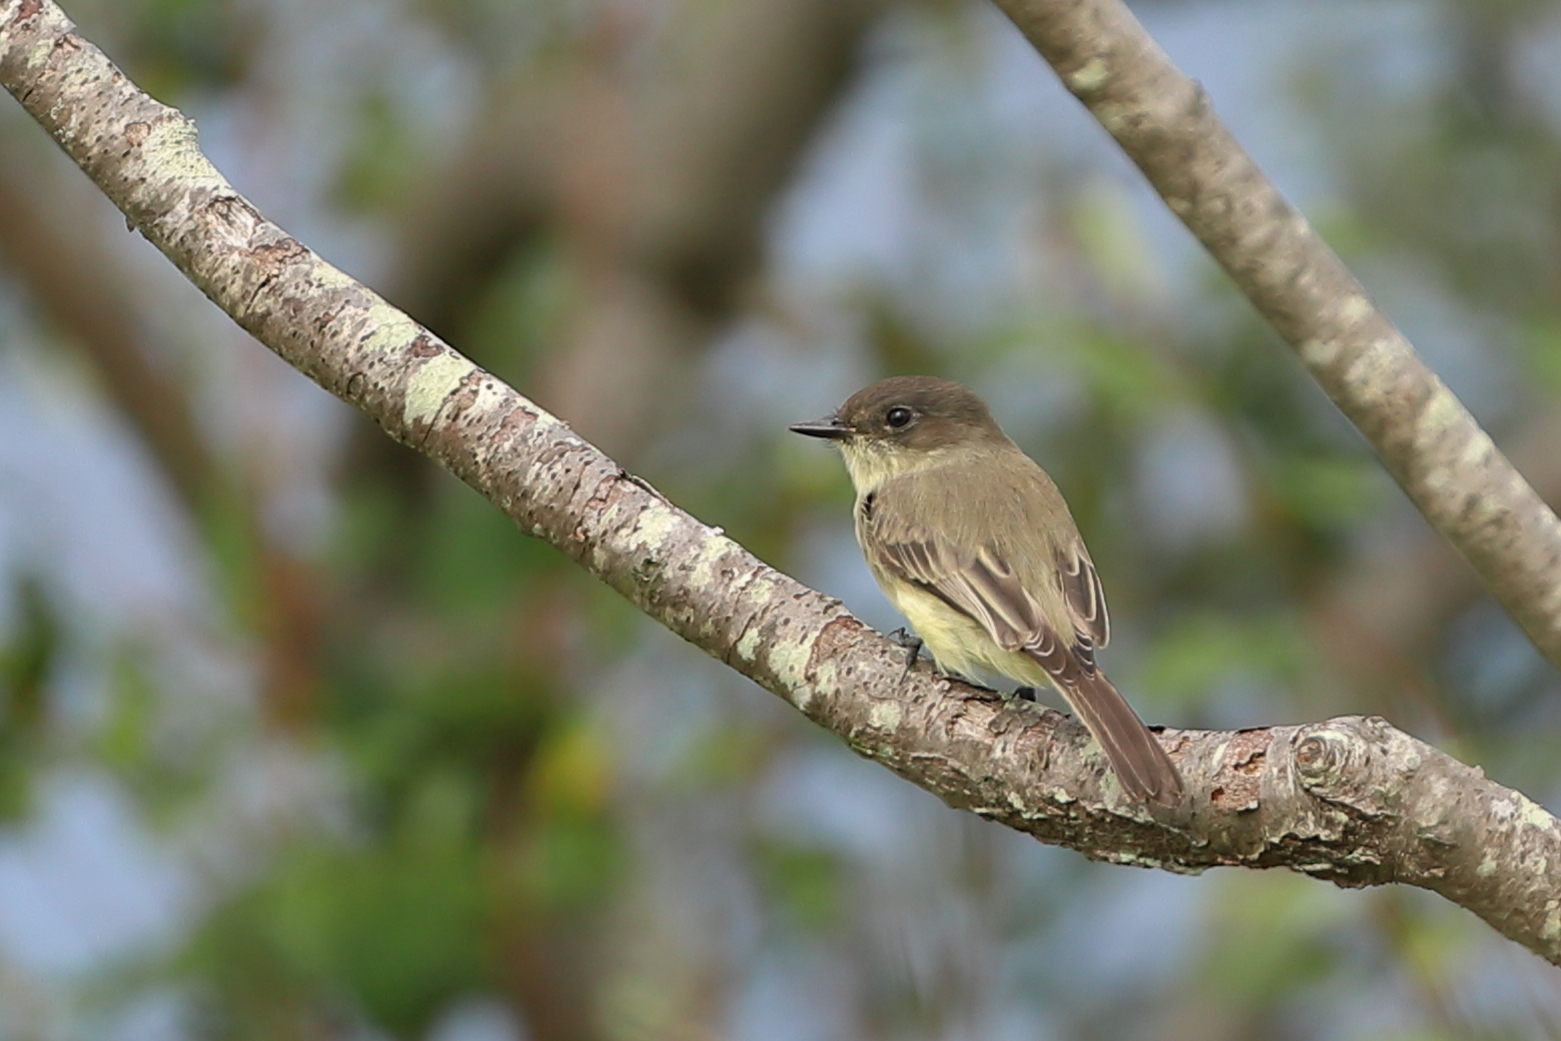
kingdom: Animalia
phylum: Chordata
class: Aves
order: Passeriformes
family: Tyrannidae
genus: Sayornis
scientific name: Sayornis phoebe
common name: Eastern phoebe
